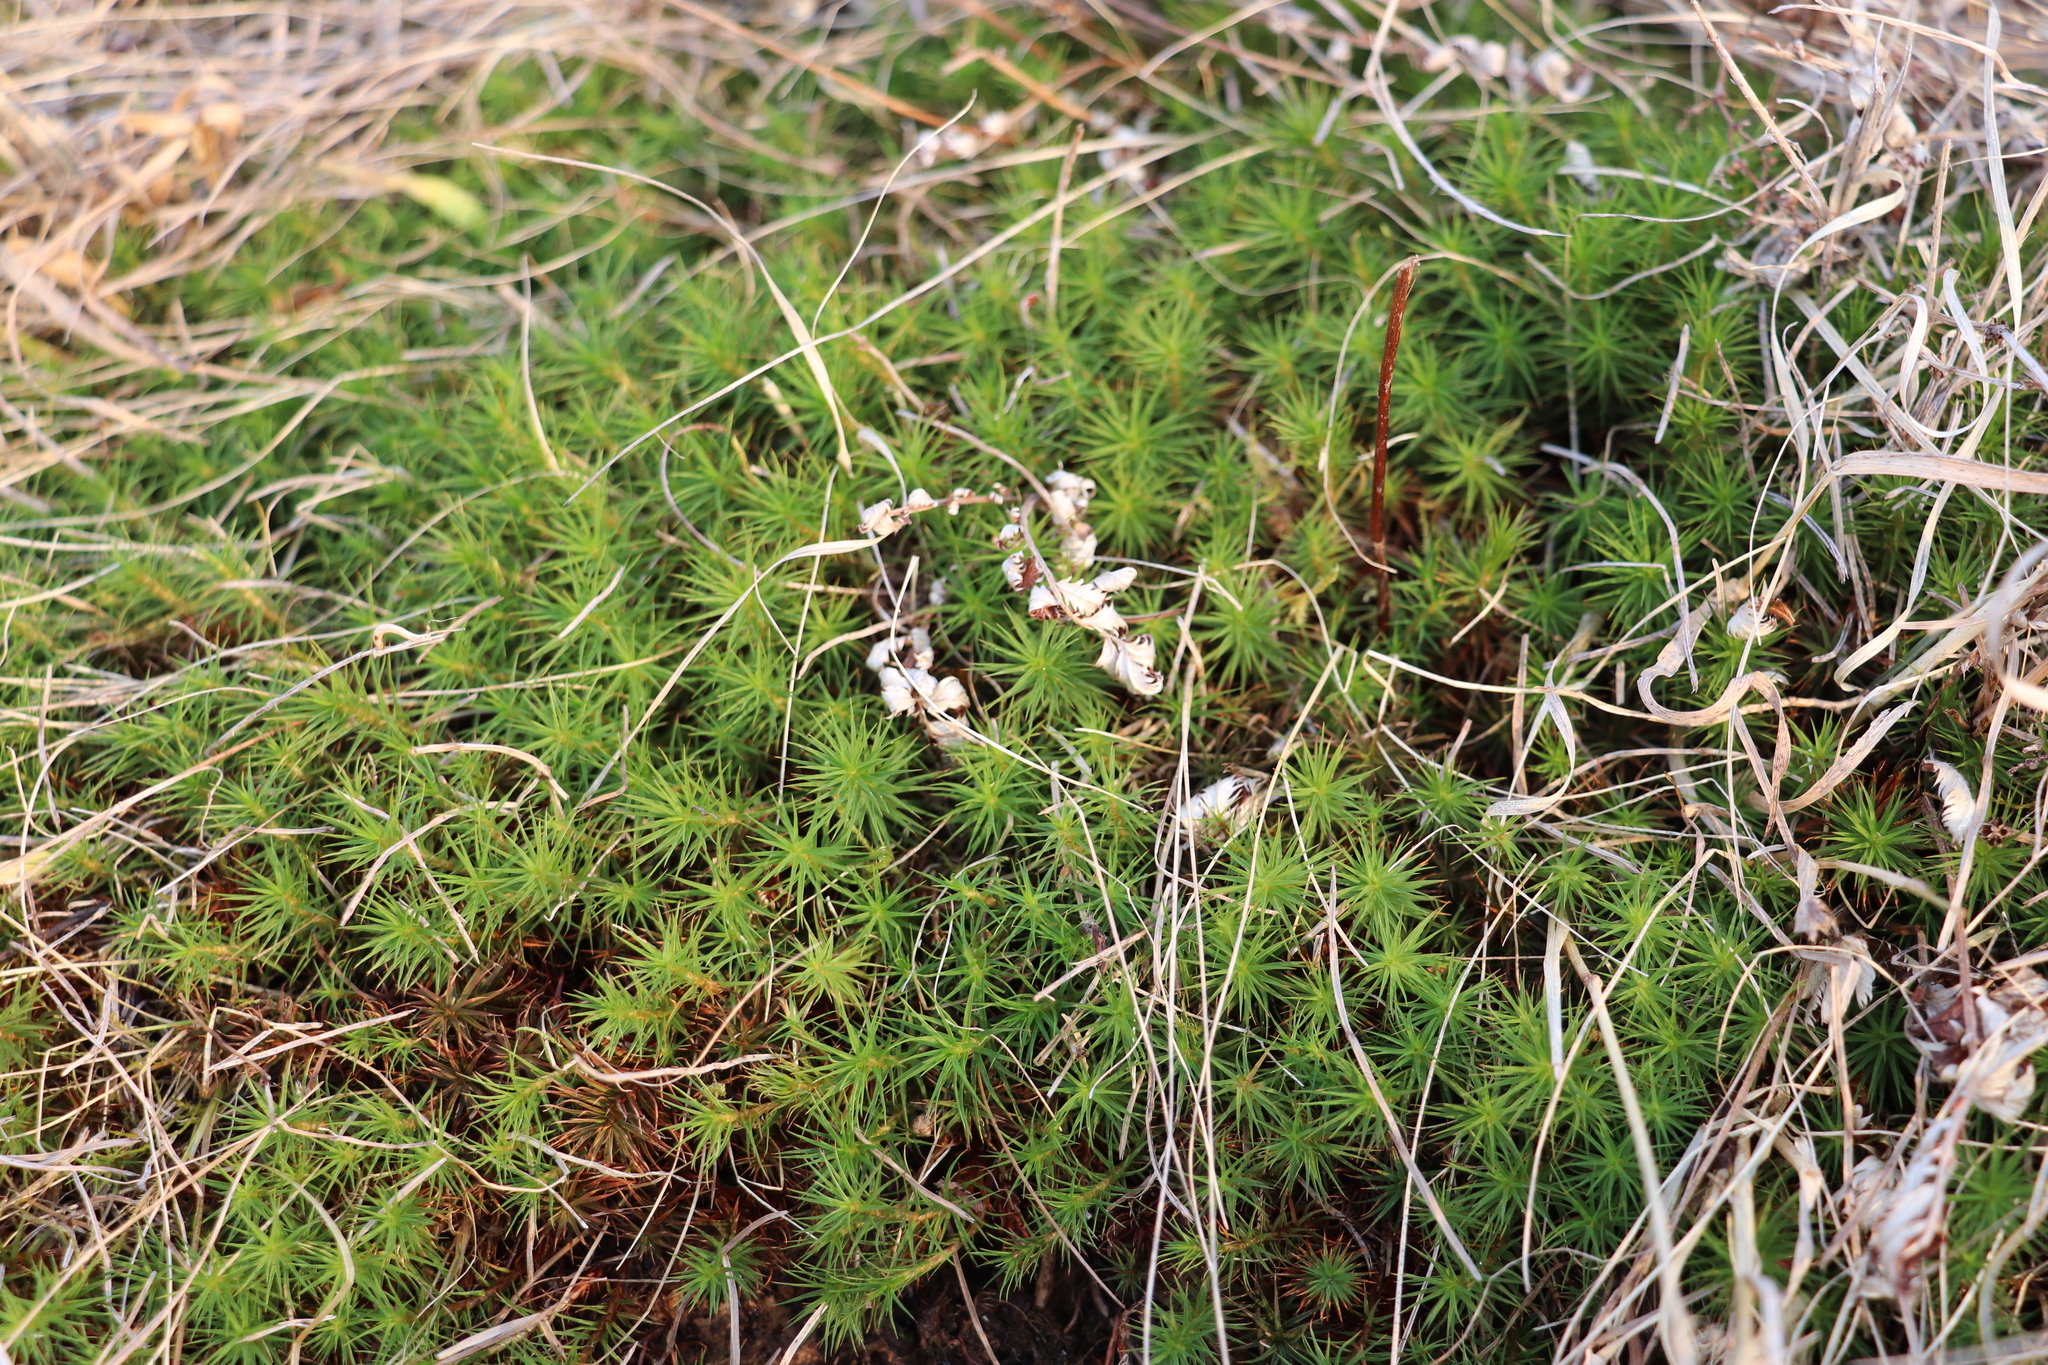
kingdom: Plantae
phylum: Bryophyta
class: Polytrichopsida
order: Polytrichales
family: Polytrichaceae
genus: Polytrichum
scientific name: Polytrichum juniperinum
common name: Juniper haircap moss
